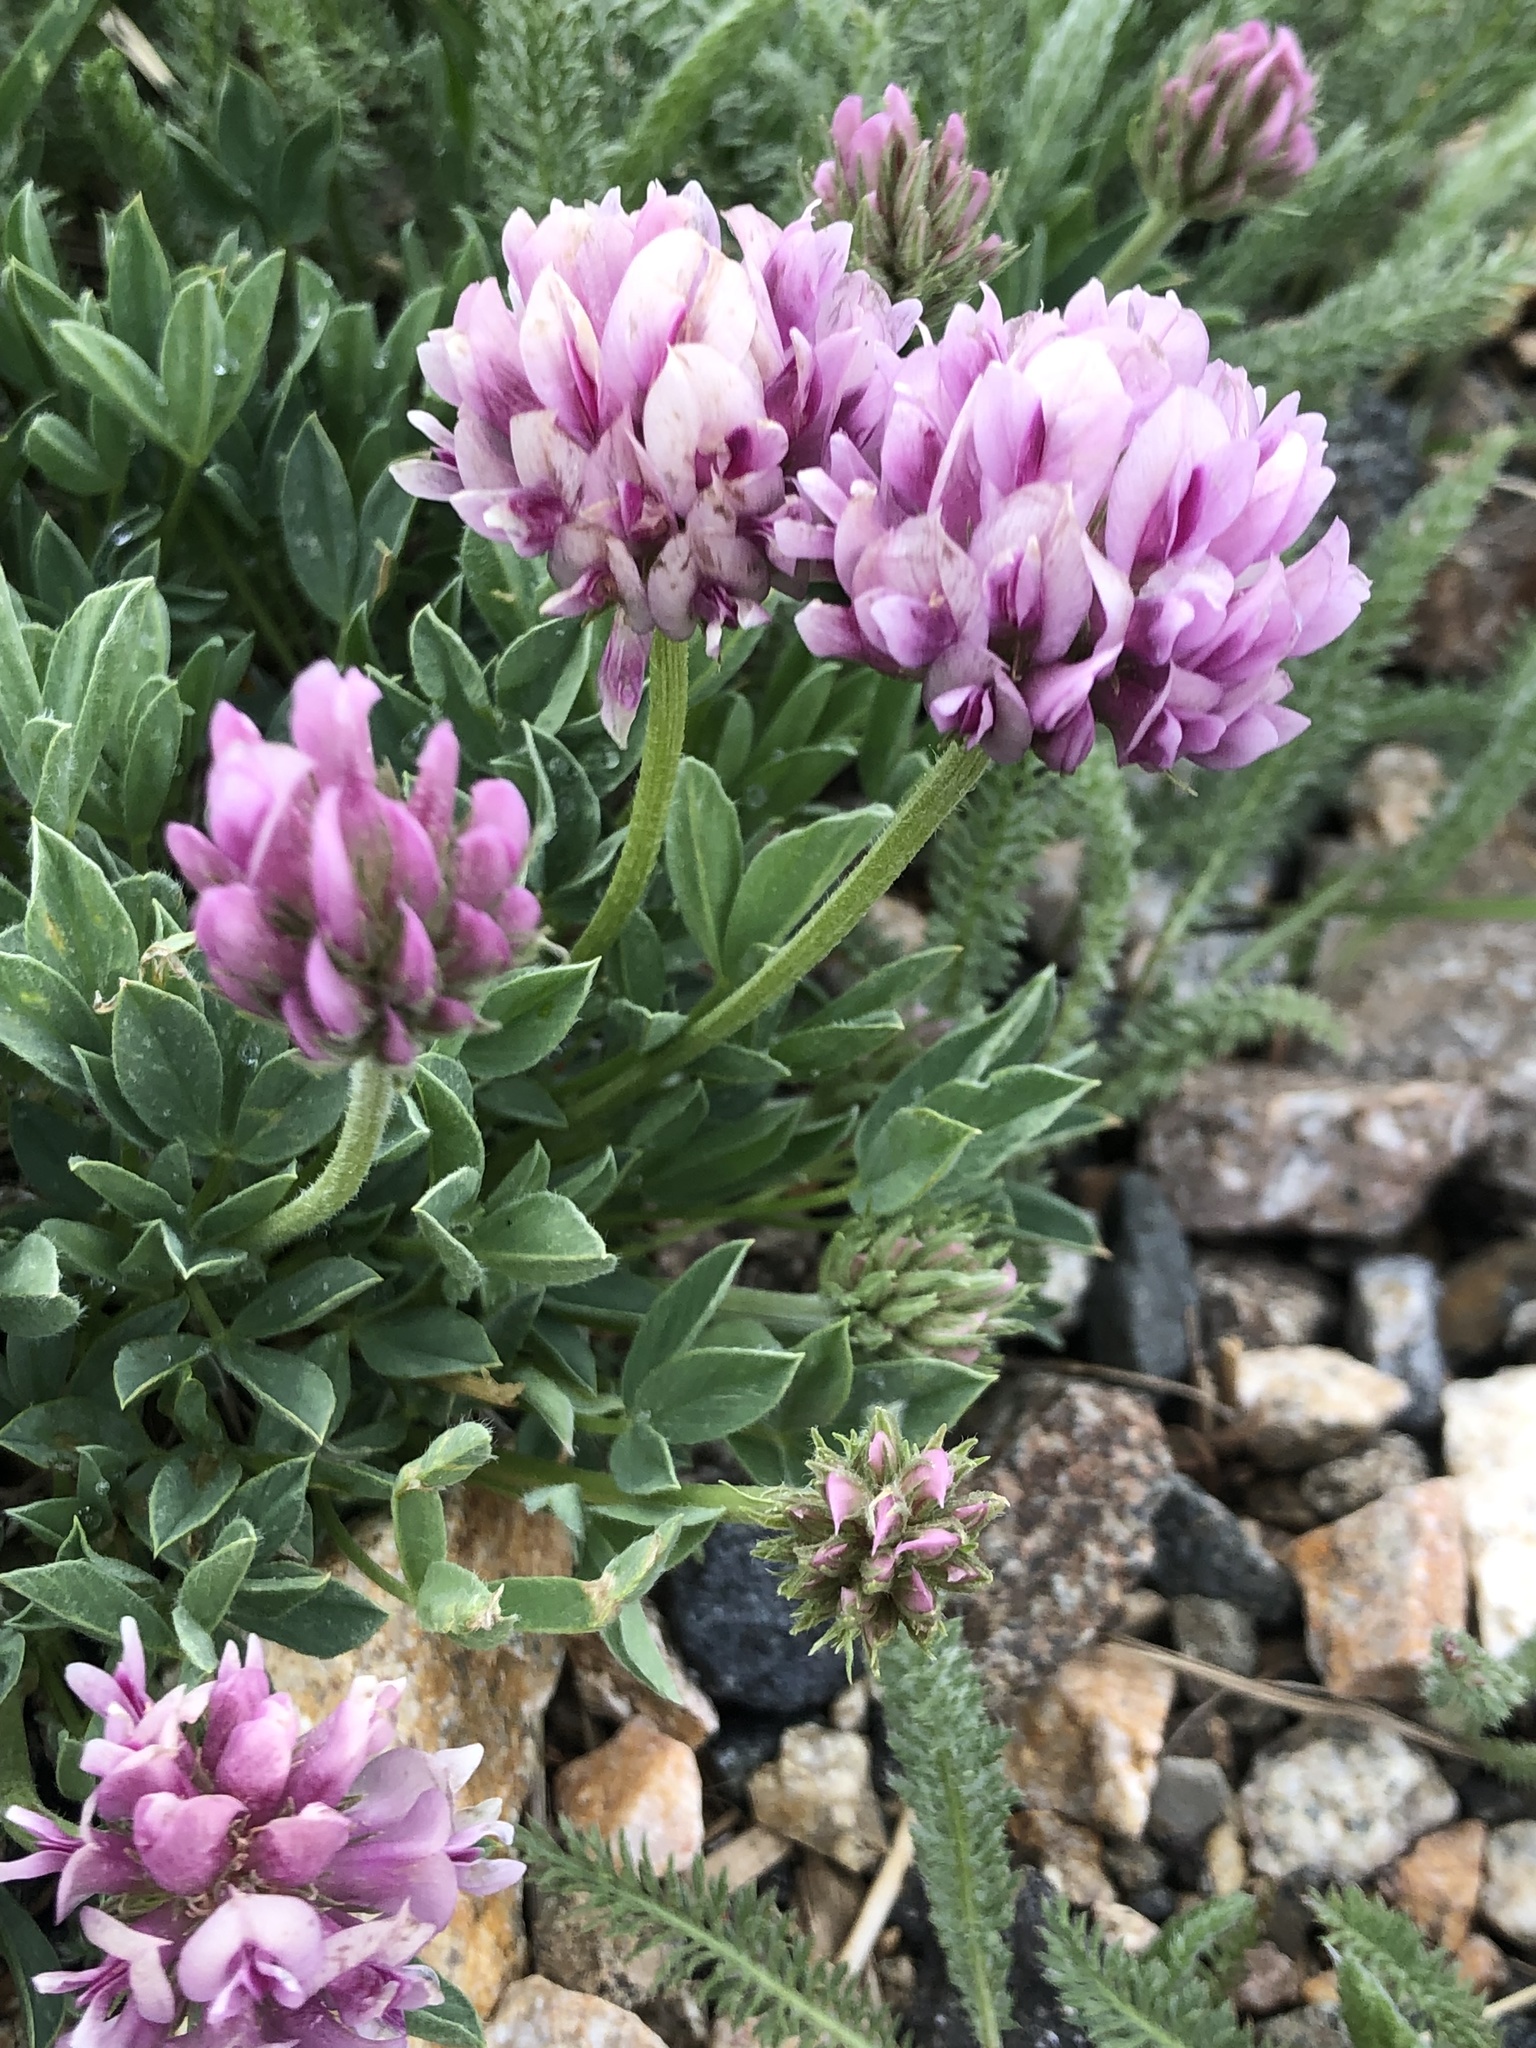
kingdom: Plantae
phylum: Tracheophyta
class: Magnoliopsida
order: Fabales
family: Fabaceae
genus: Trifolium
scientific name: Trifolium dasyphyllum
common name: Whip-root clover
